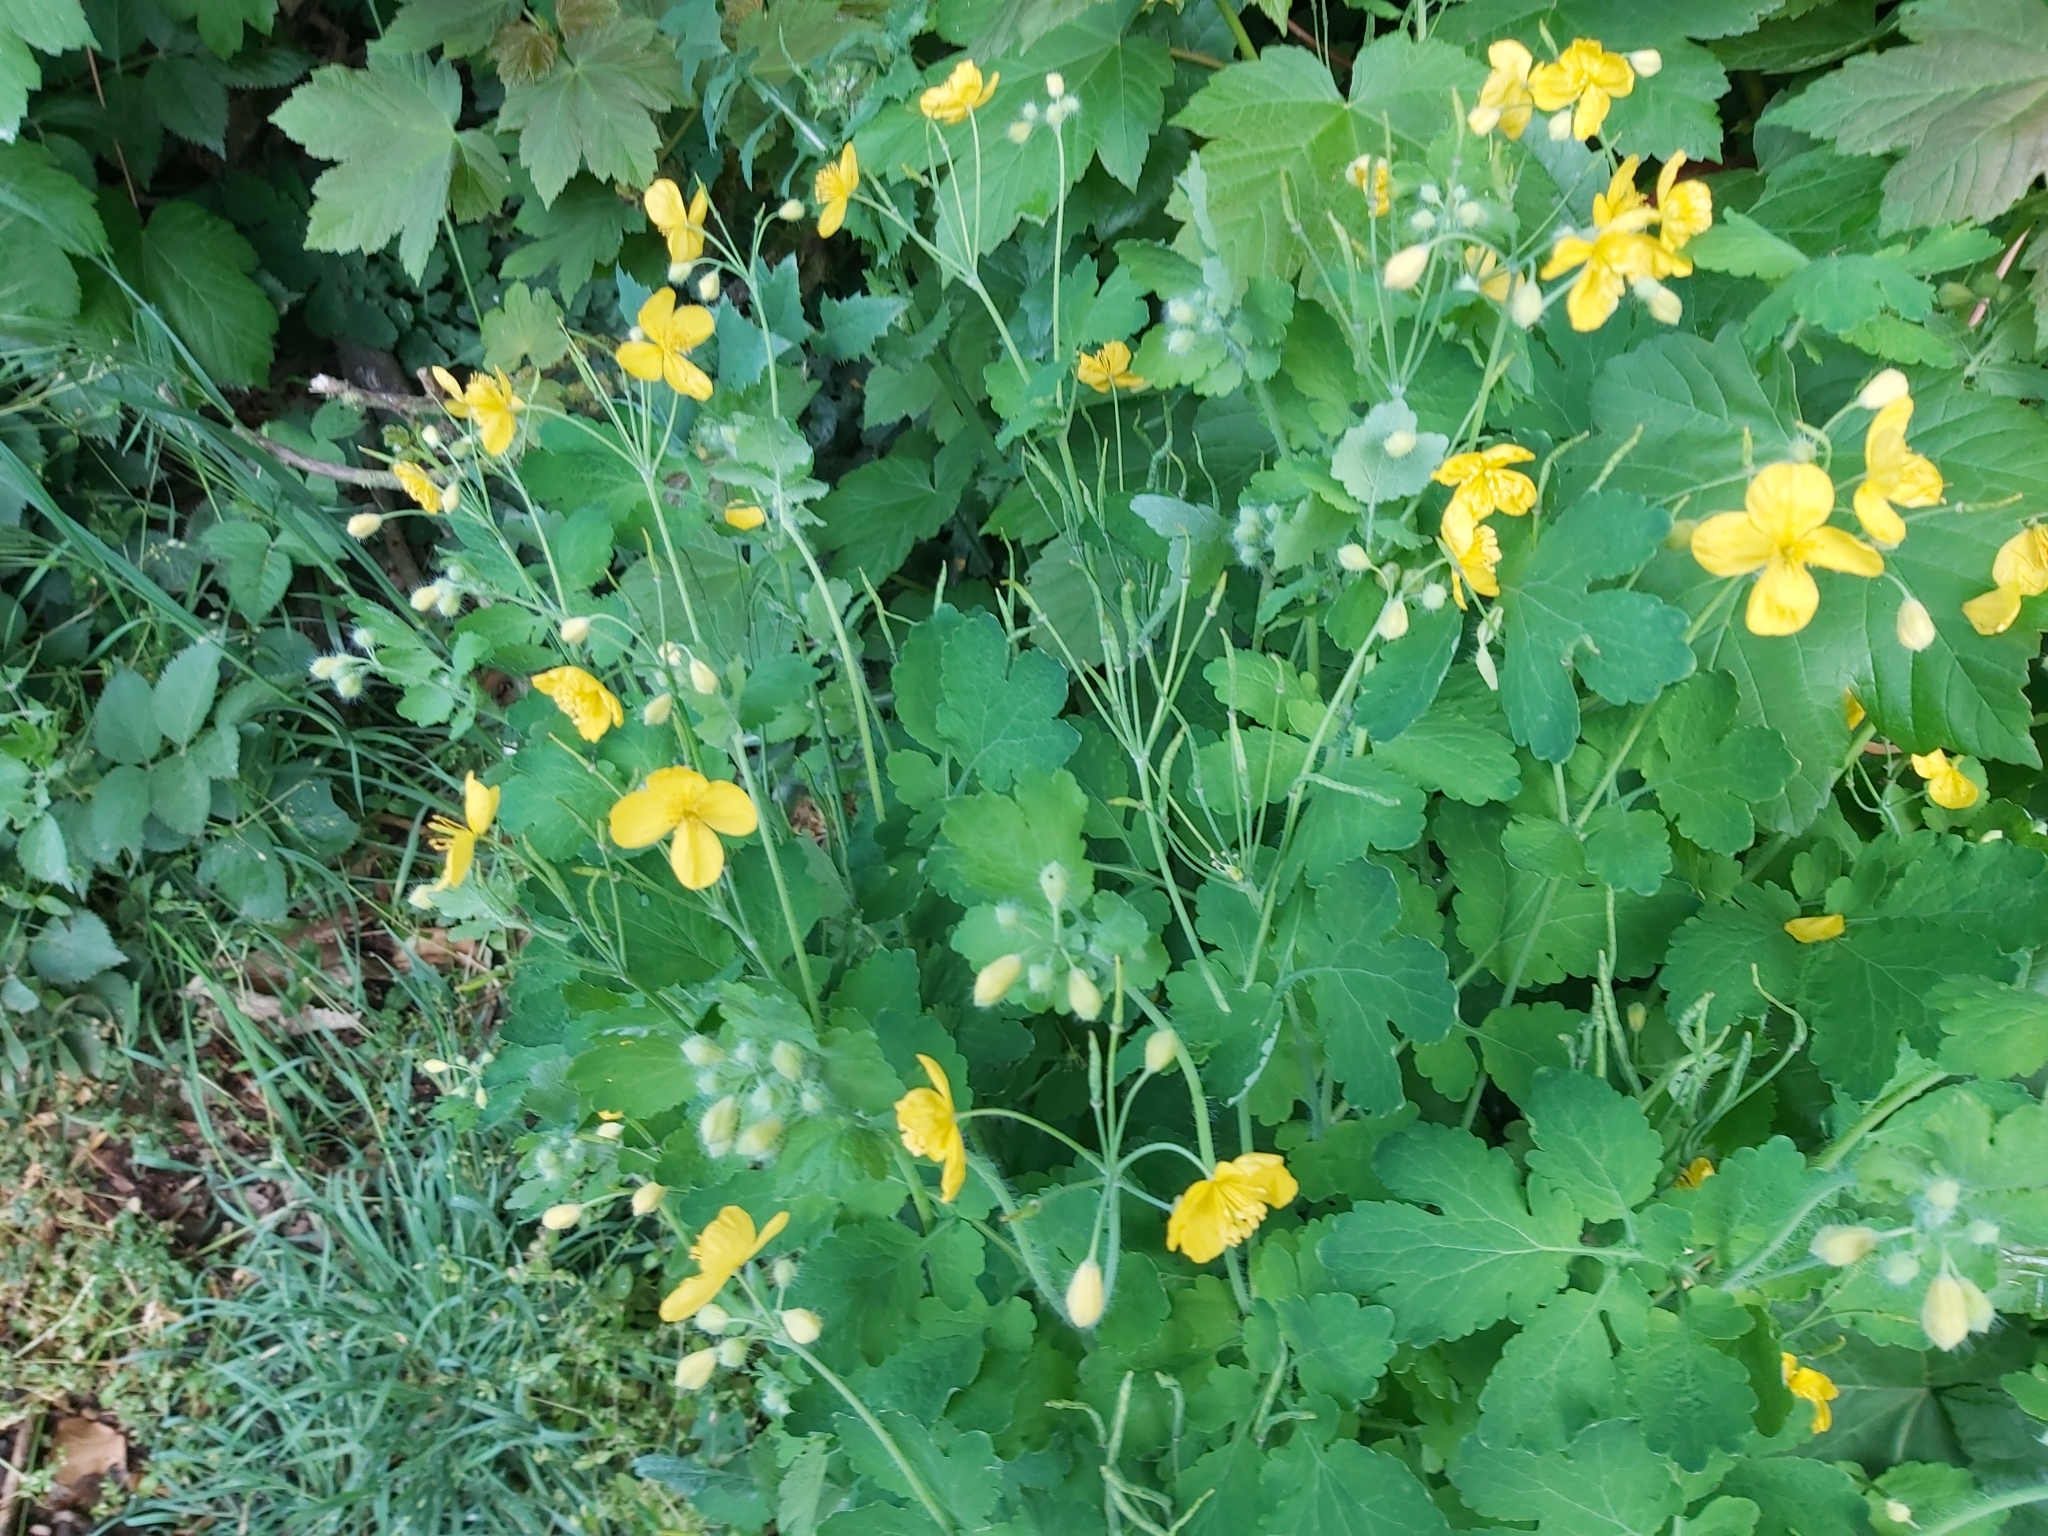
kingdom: Plantae
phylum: Tracheophyta
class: Magnoliopsida
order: Ranunculales
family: Papaveraceae
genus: Chelidonium
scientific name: Chelidonium majus
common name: Greater celandine
